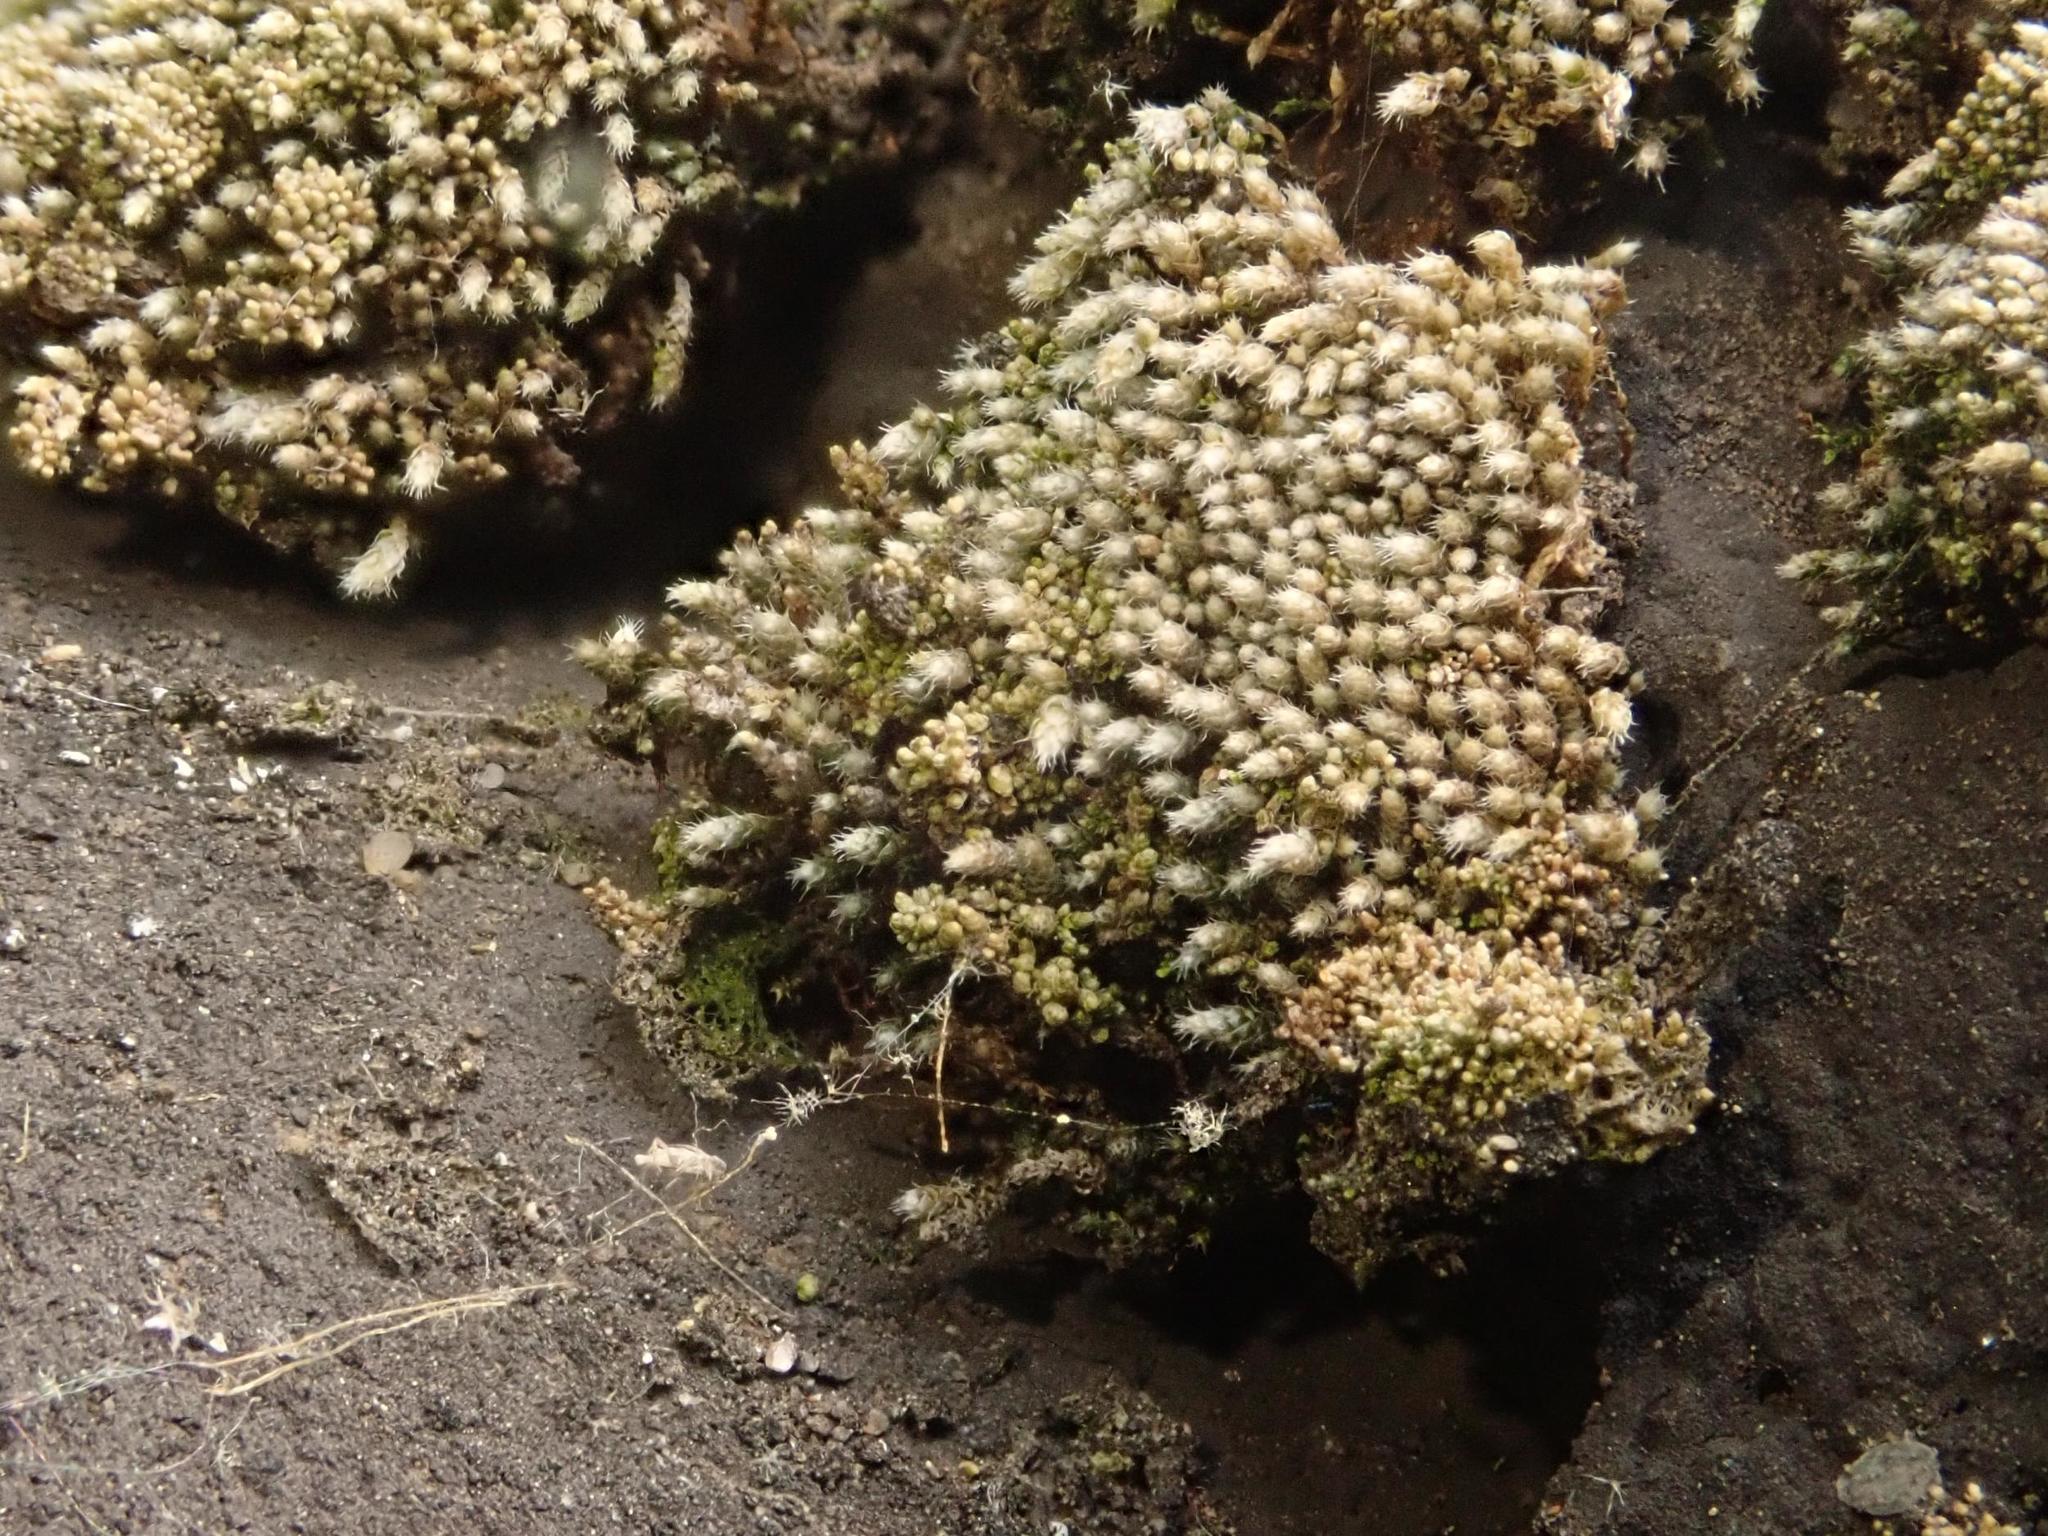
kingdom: Plantae
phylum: Bryophyta
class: Bryopsida
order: Bryales
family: Bryaceae
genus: Bryum
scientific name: Bryum argenteum
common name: Silver-moss
